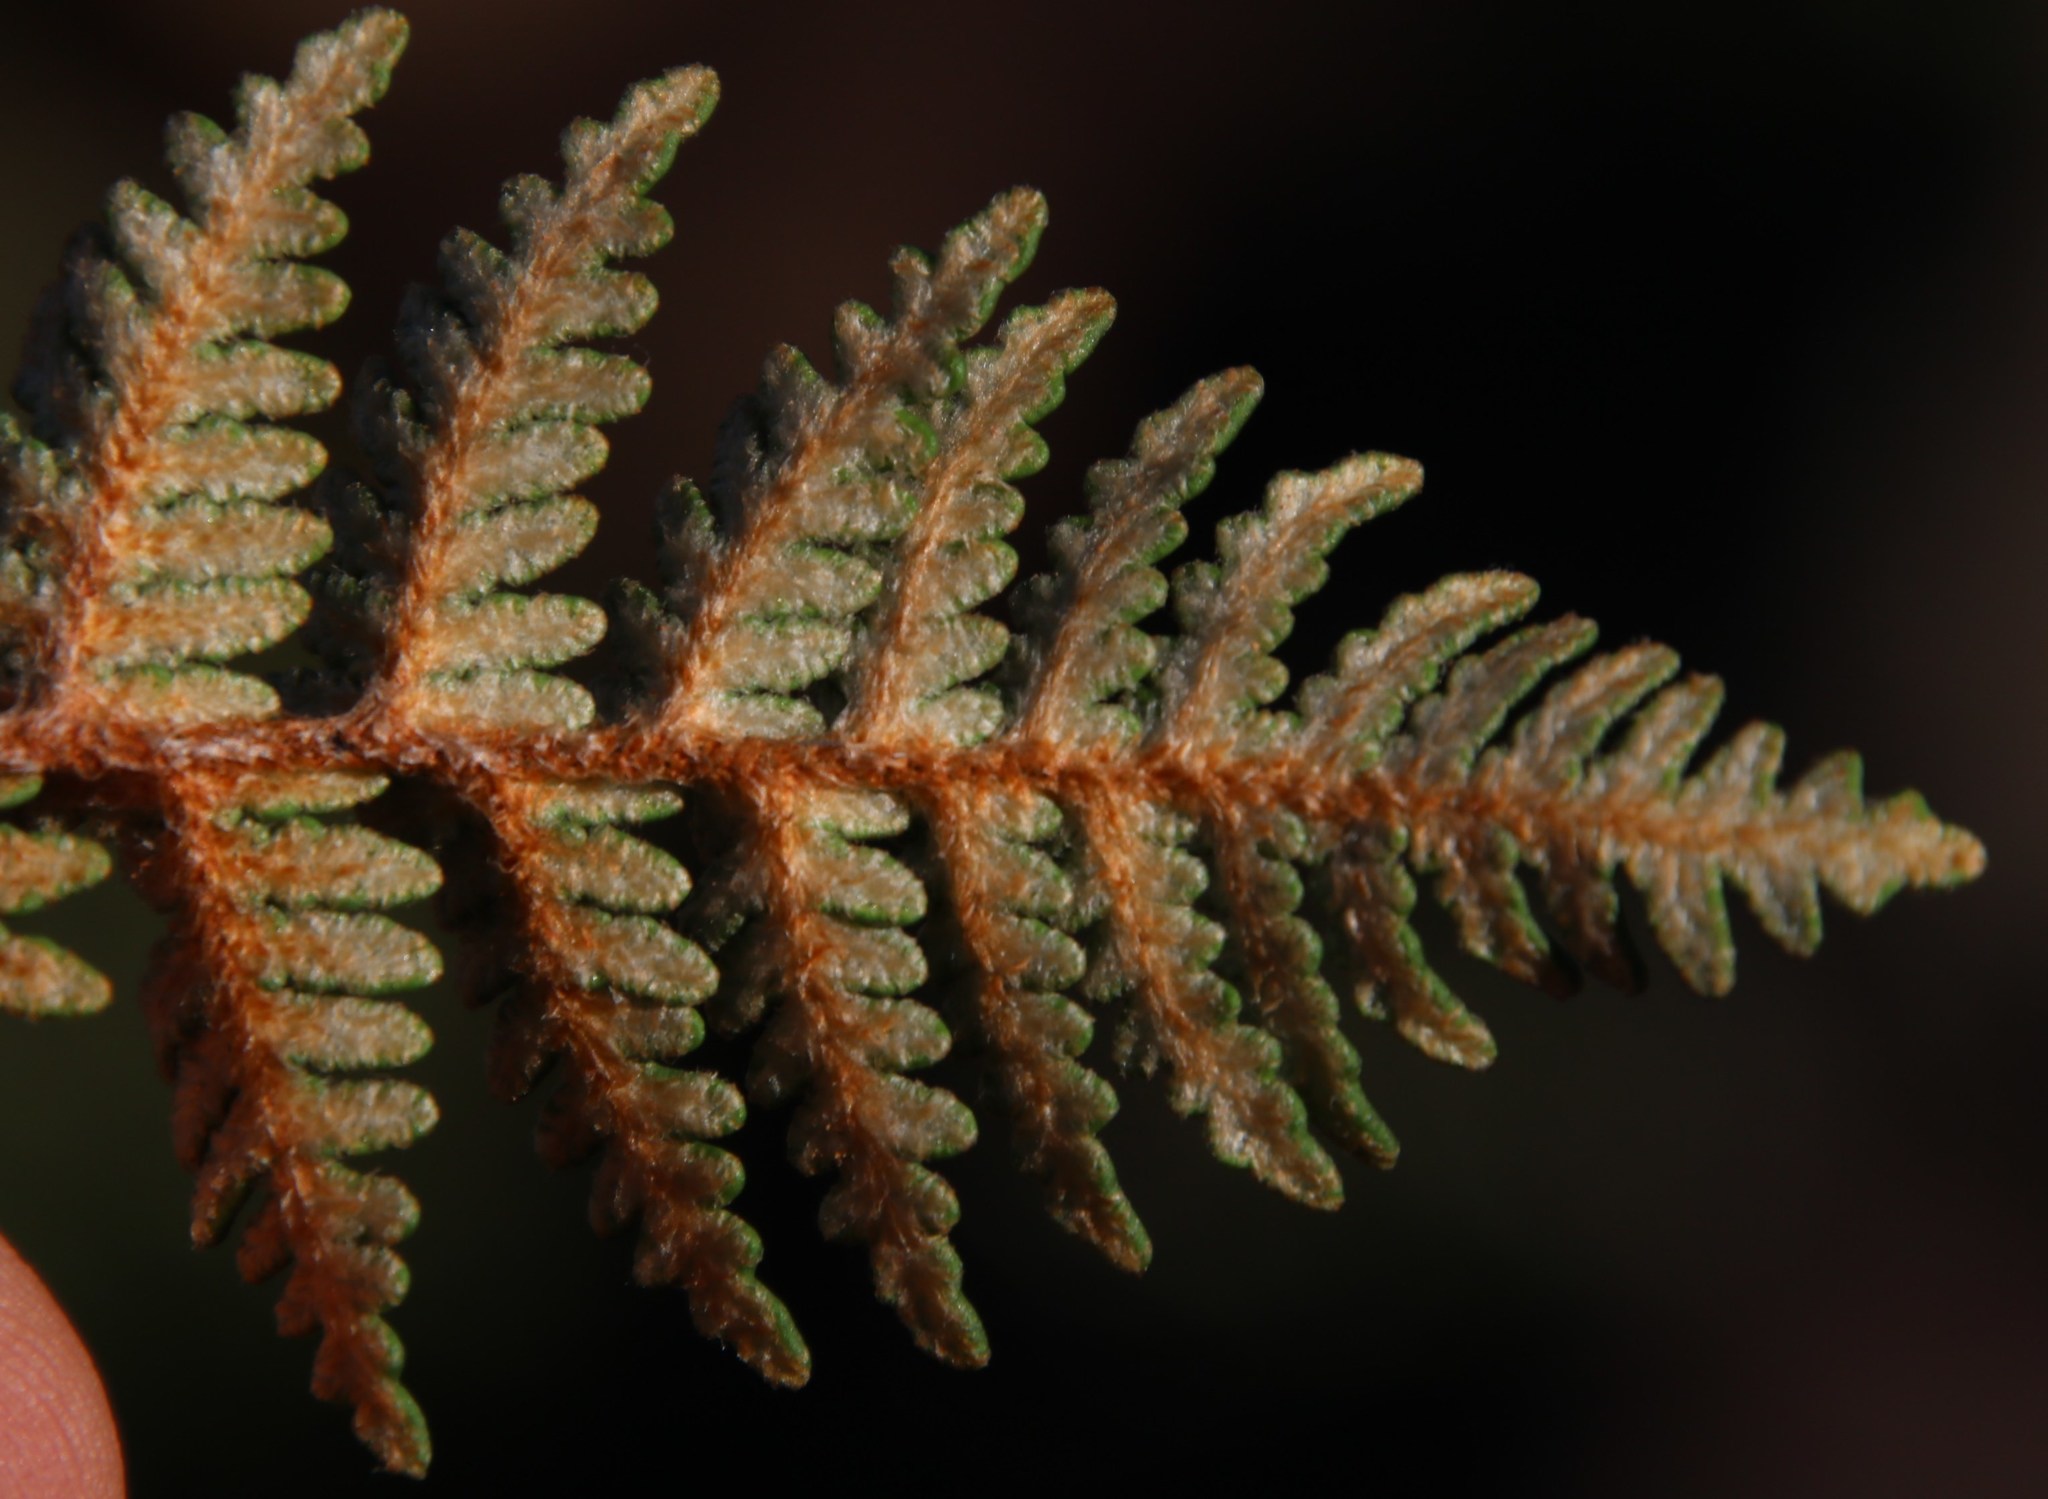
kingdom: Plantae
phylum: Tracheophyta
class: Polypodiopsida
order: Polypodiales
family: Pteridaceae
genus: Cheilanthes
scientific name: Cheilanthes eckloniana
